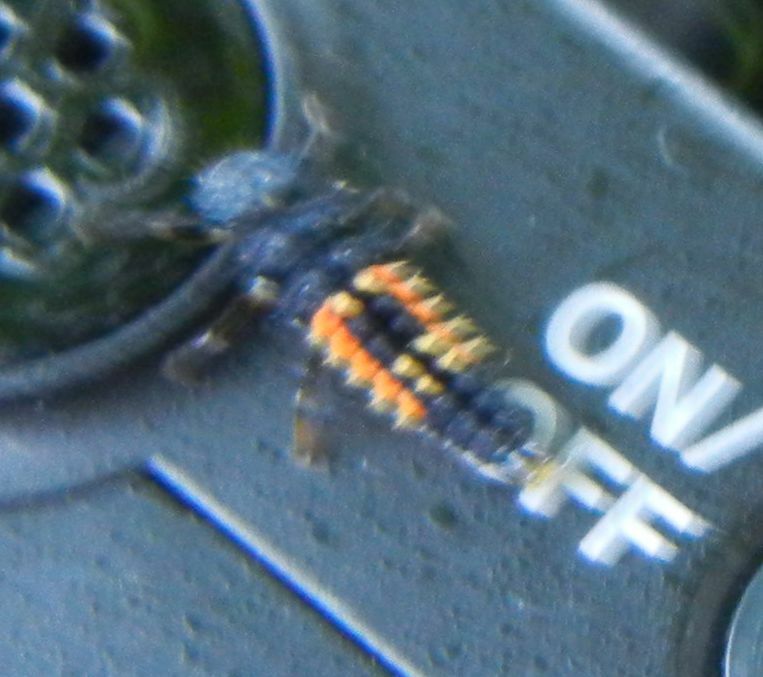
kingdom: Animalia
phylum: Arthropoda
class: Insecta
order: Coleoptera
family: Coccinellidae
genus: Harmonia
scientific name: Harmonia axyridis
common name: Harlequin ladybird
